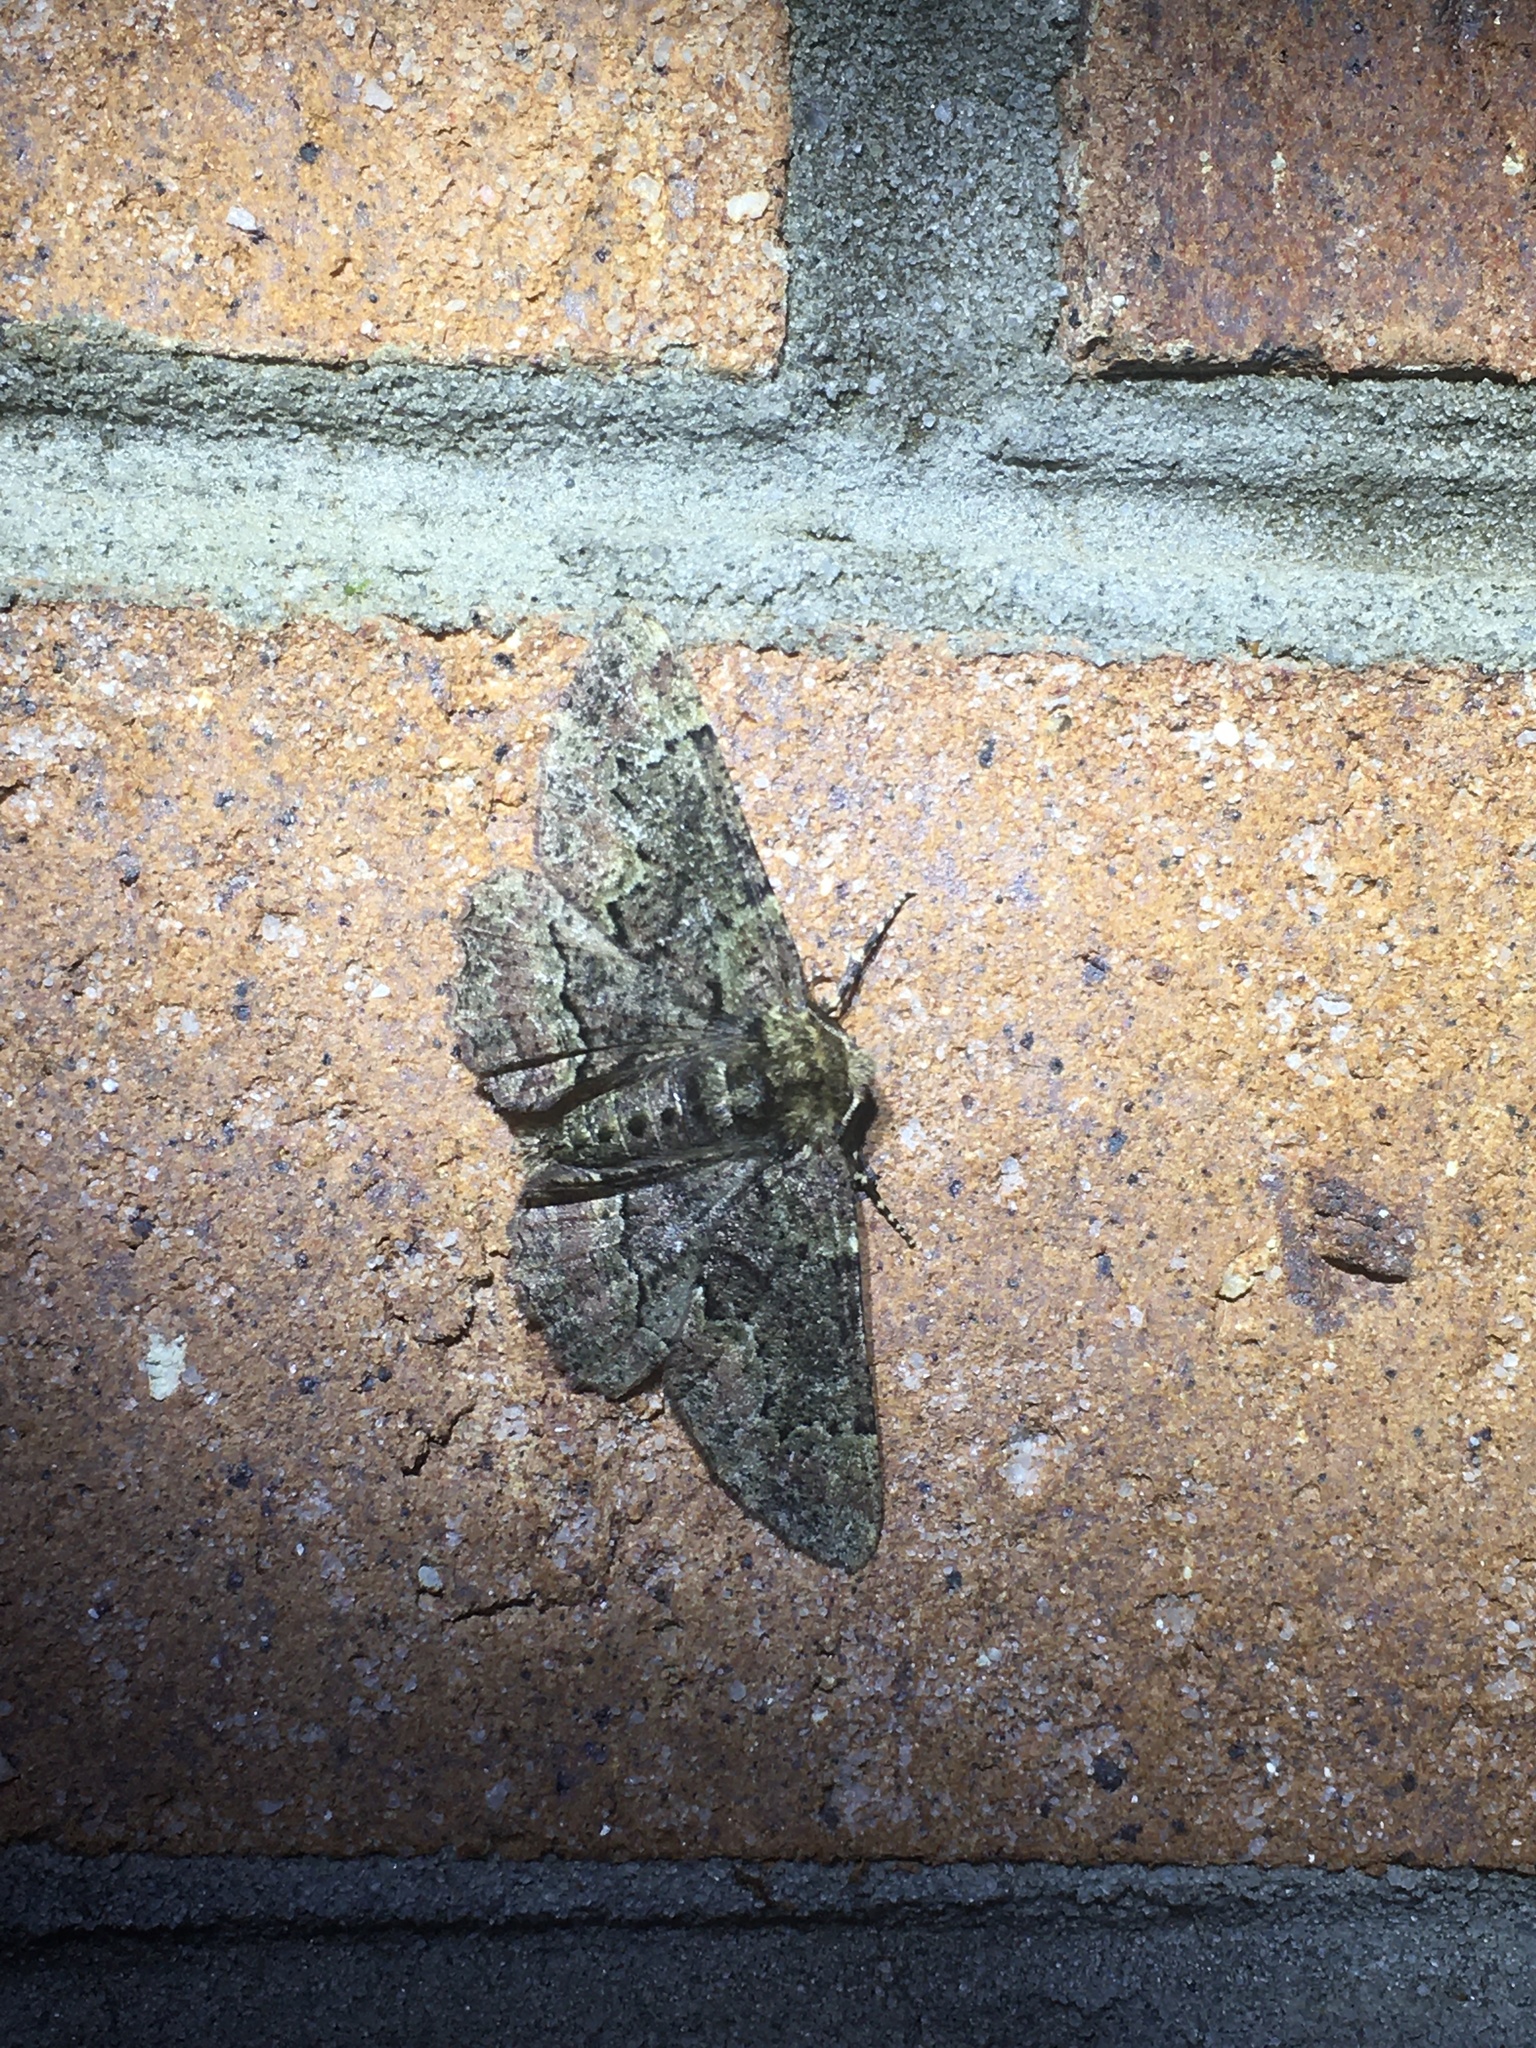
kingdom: Animalia
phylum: Arthropoda
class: Insecta
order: Lepidoptera
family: Geometridae
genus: Phaeoura
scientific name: Phaeoura quernaria
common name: Oak beauty
